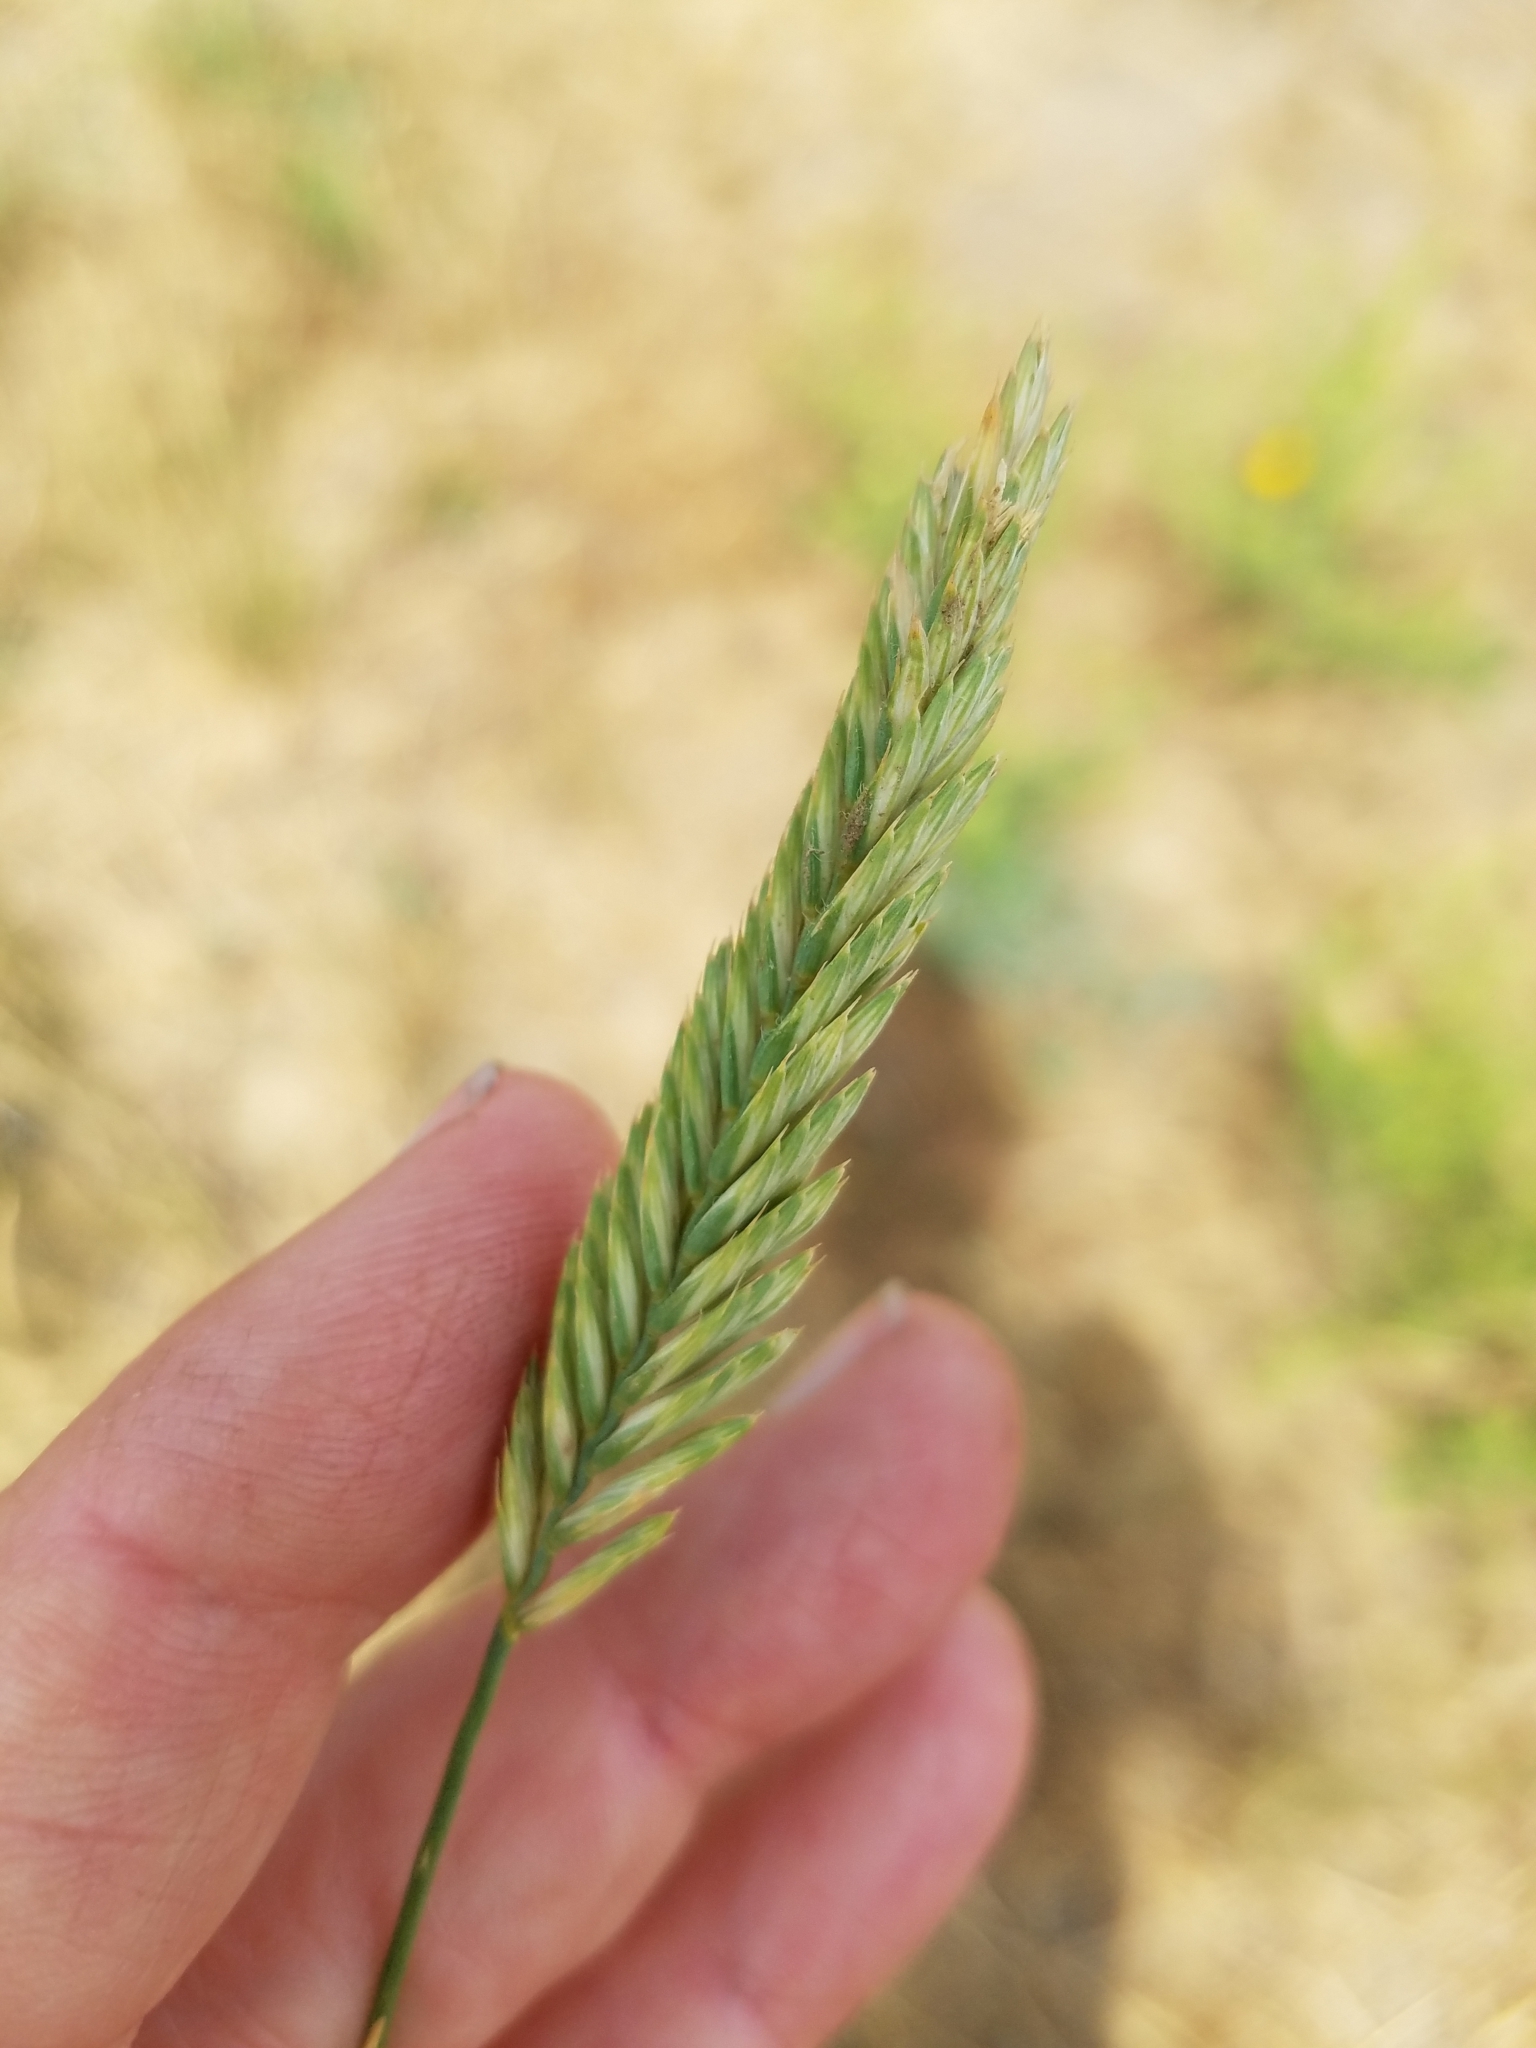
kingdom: Plantae
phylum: Tracheophyta
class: Liliopsida
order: Poales
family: Poaceae
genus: Agropyron
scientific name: Agropyron cristatum
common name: Crested wheatgrass
